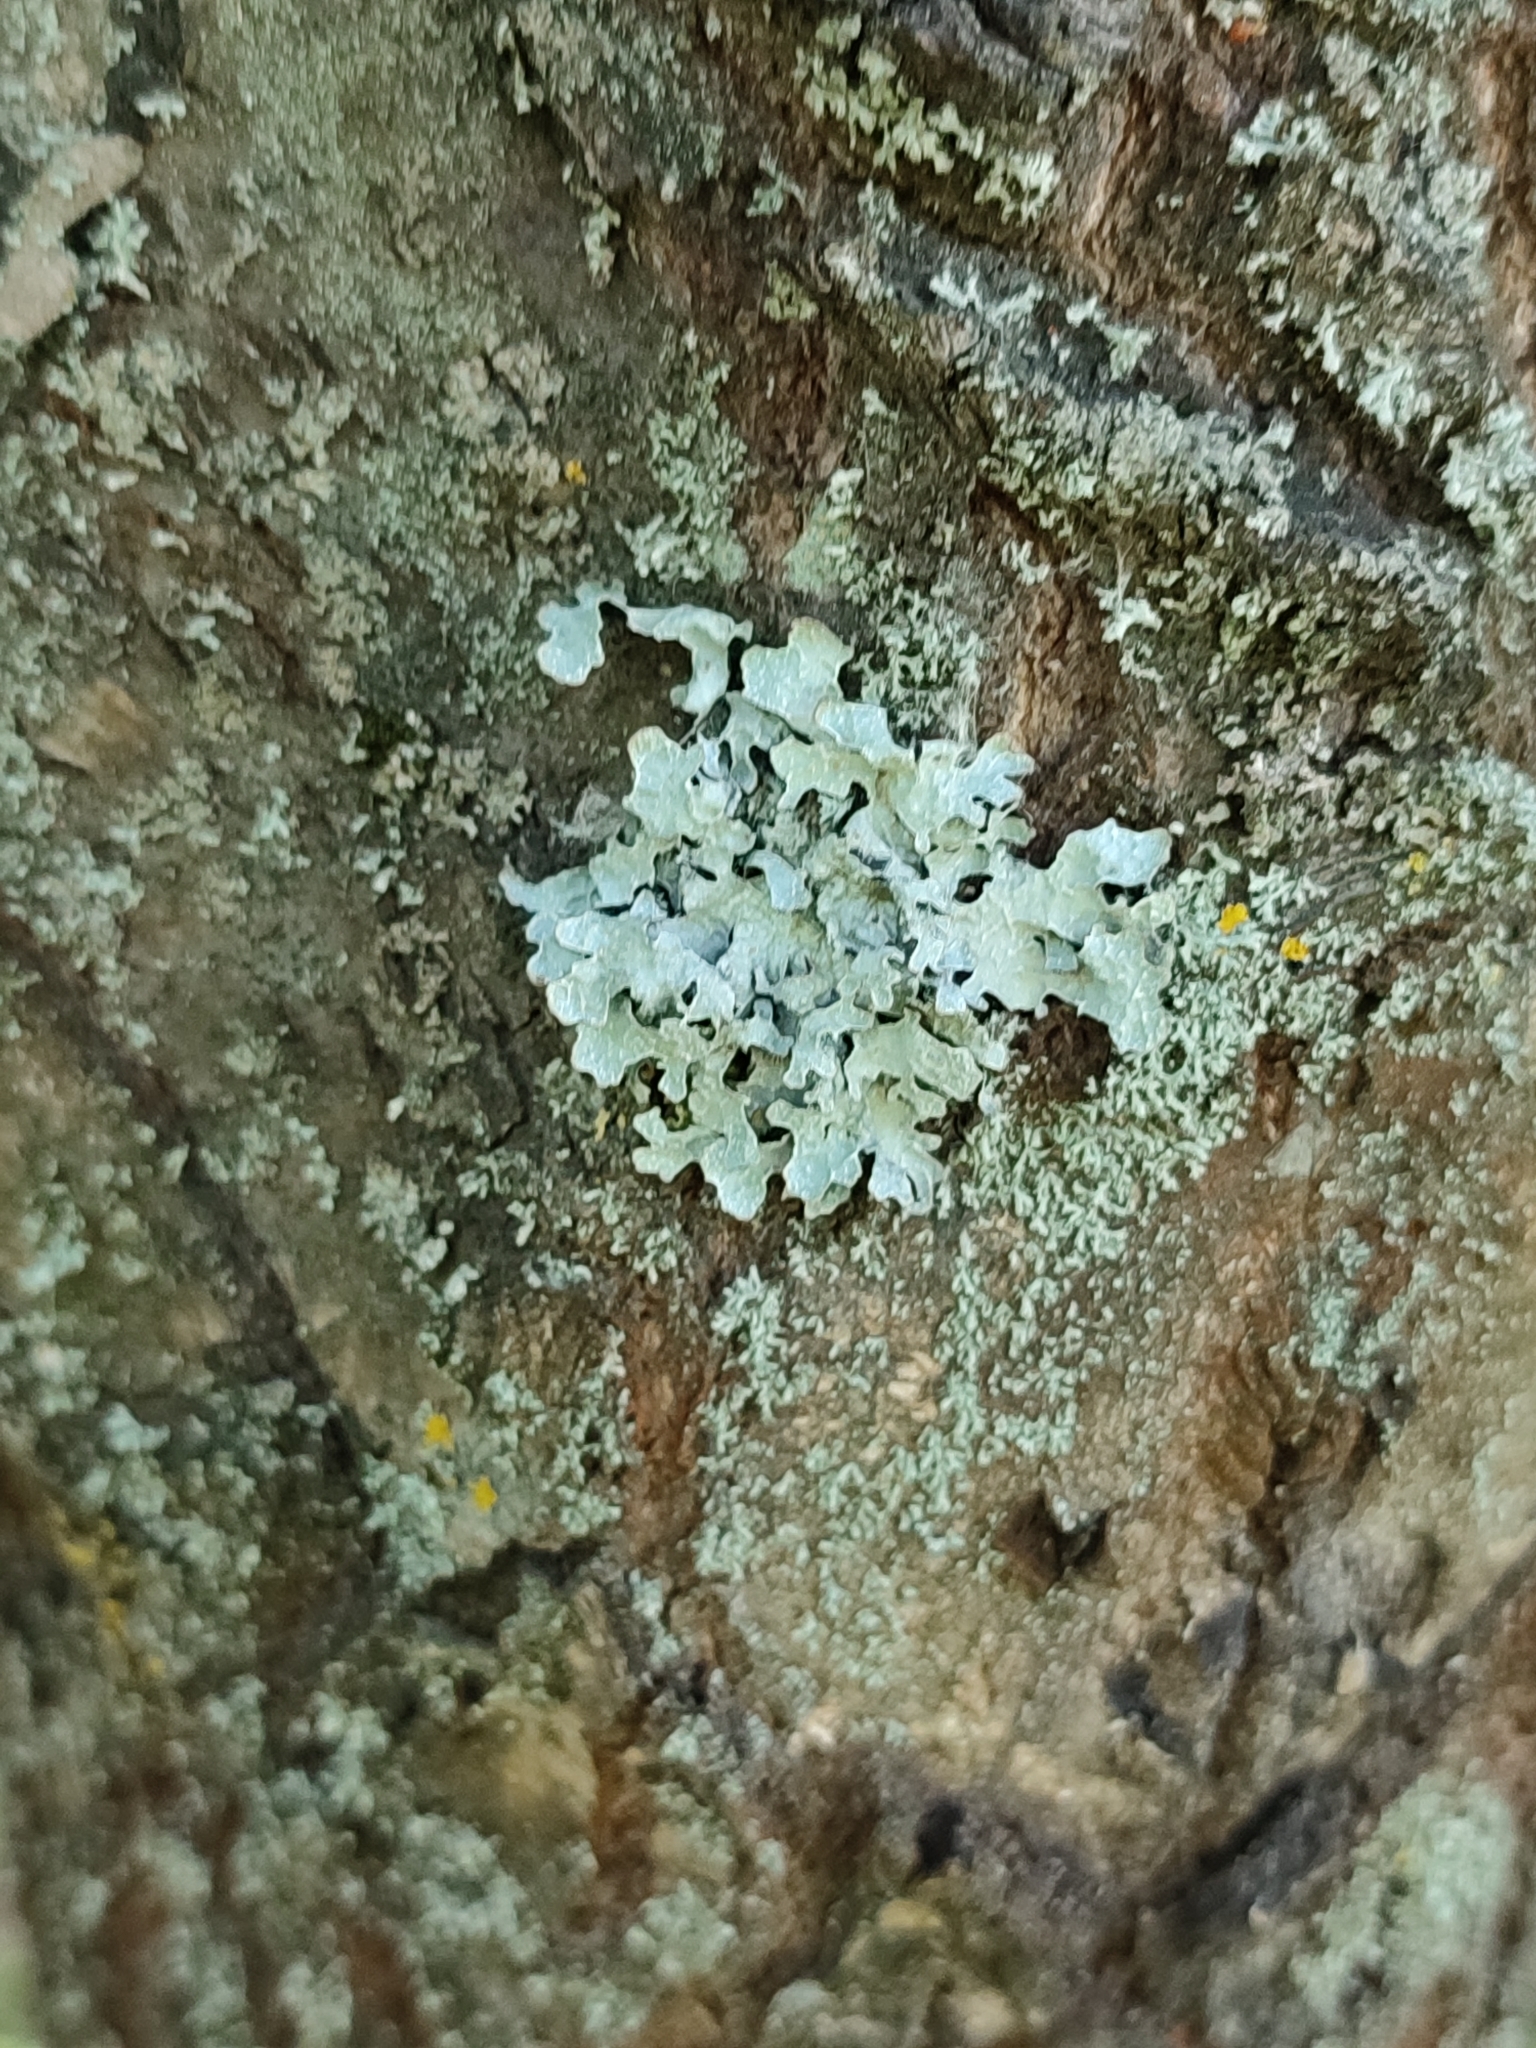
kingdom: Fungi
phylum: Ascomycota
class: Lecanoromycetes
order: Lecanorales
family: Parmeliaceae
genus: Parmelia
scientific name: Parmelia sulcata
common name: Netted shield lichen
